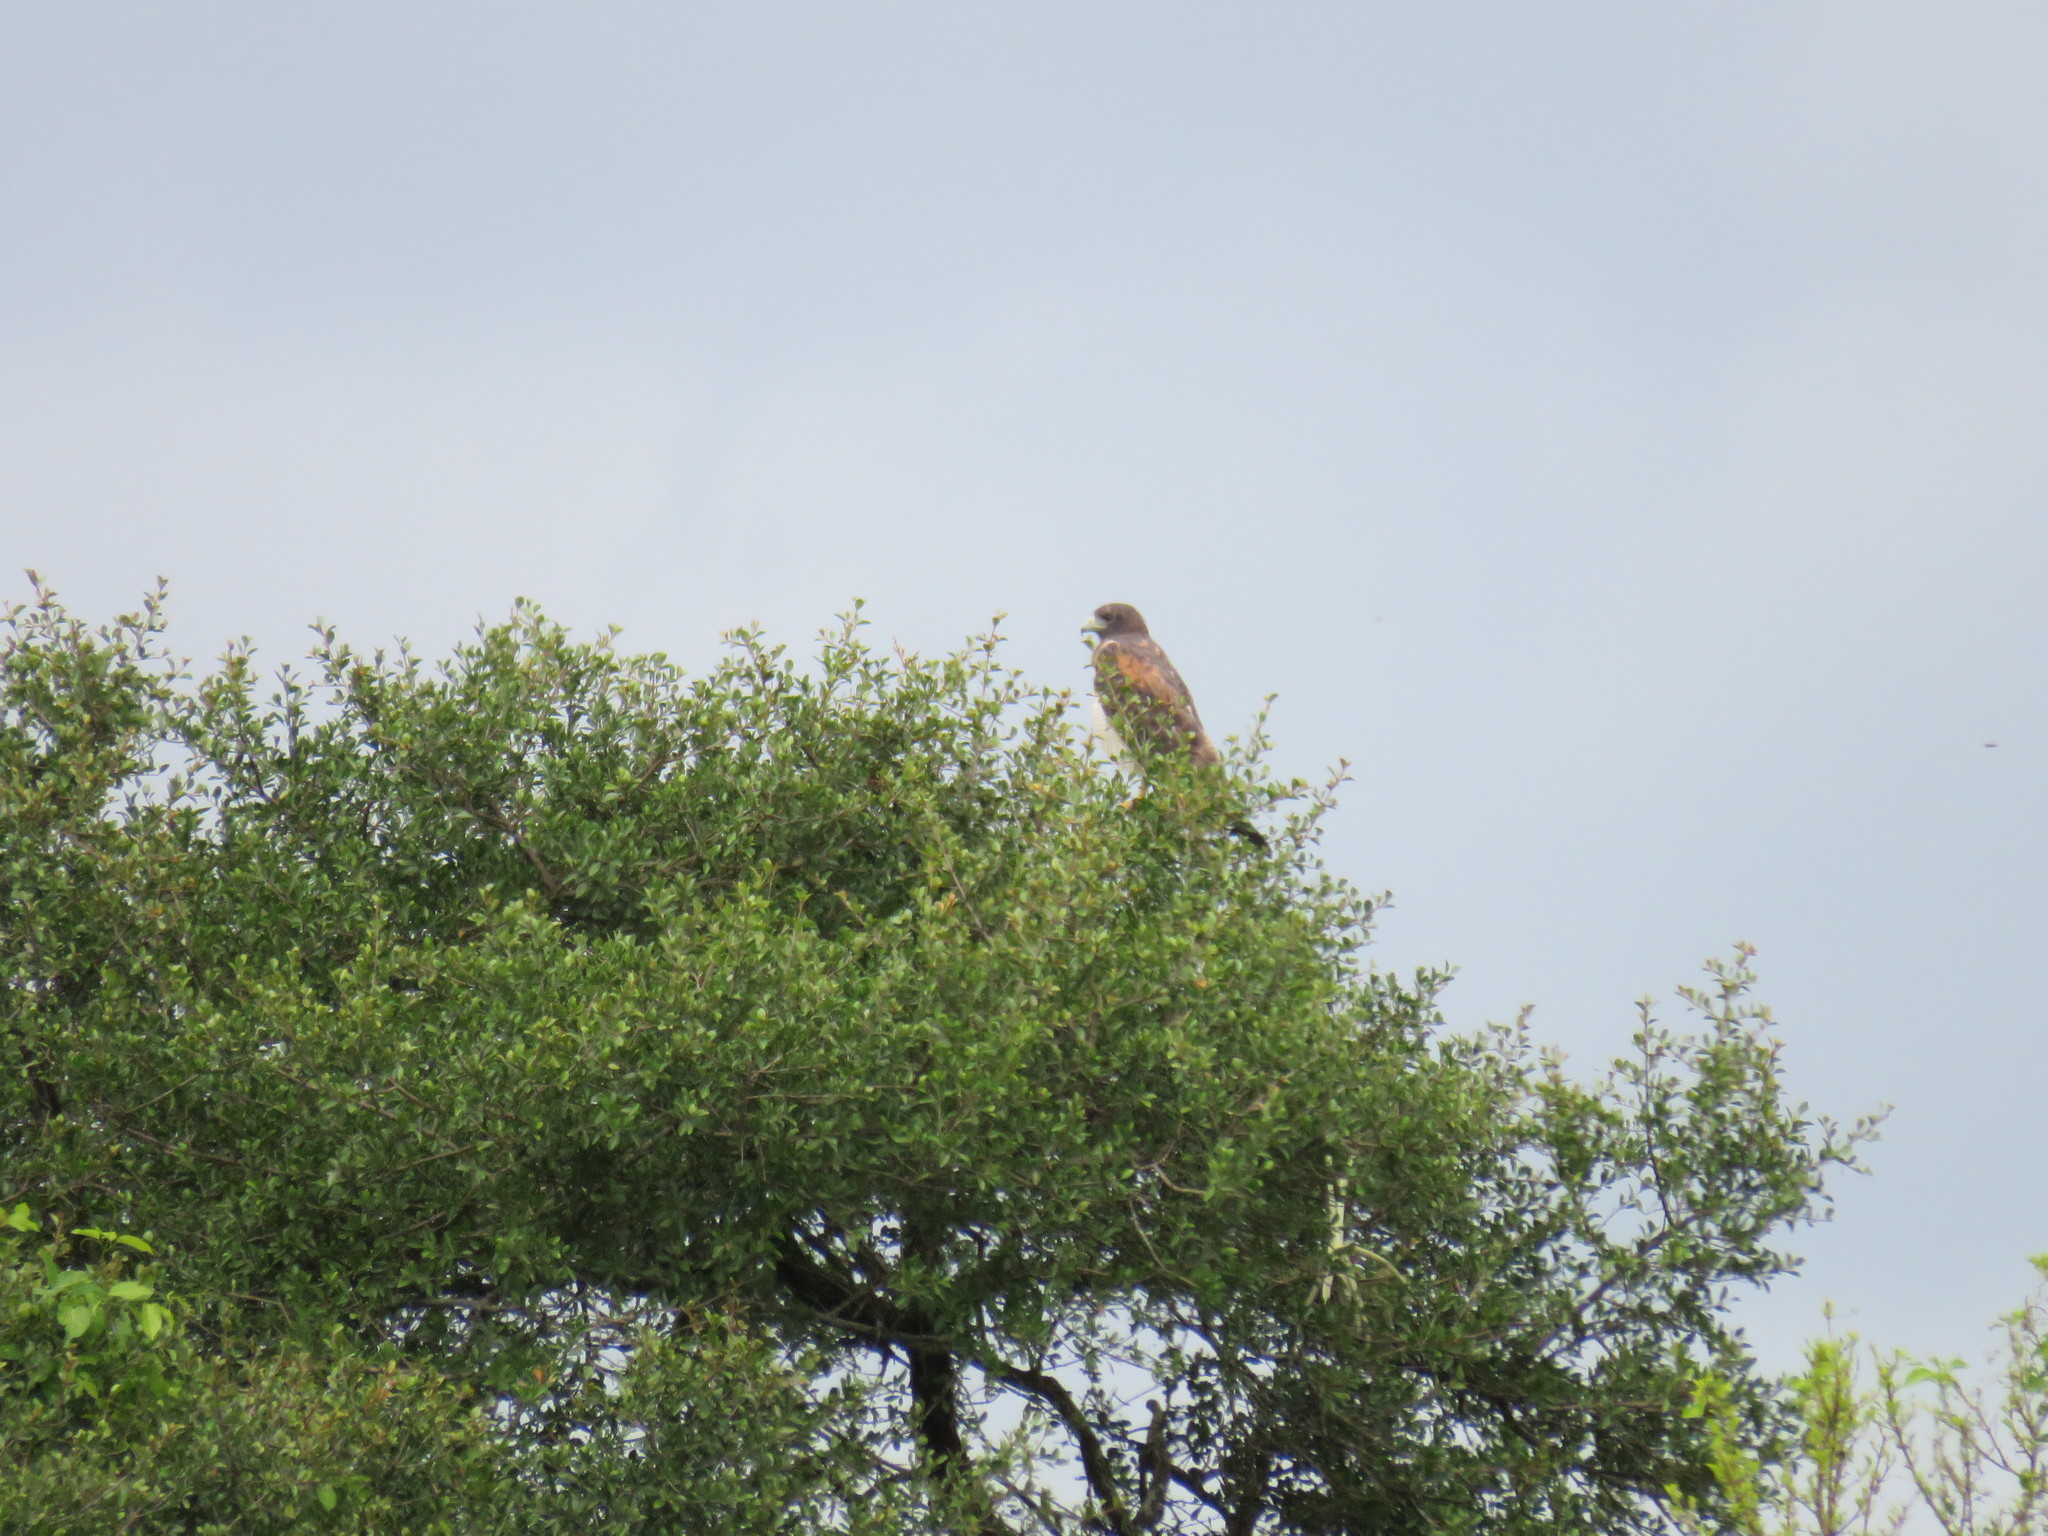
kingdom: Animalia
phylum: Chordata
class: Aves
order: Accipitriformes
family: Accipitridae
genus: Buteo
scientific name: Buteo albicaudatus
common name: White-tailed hawk
